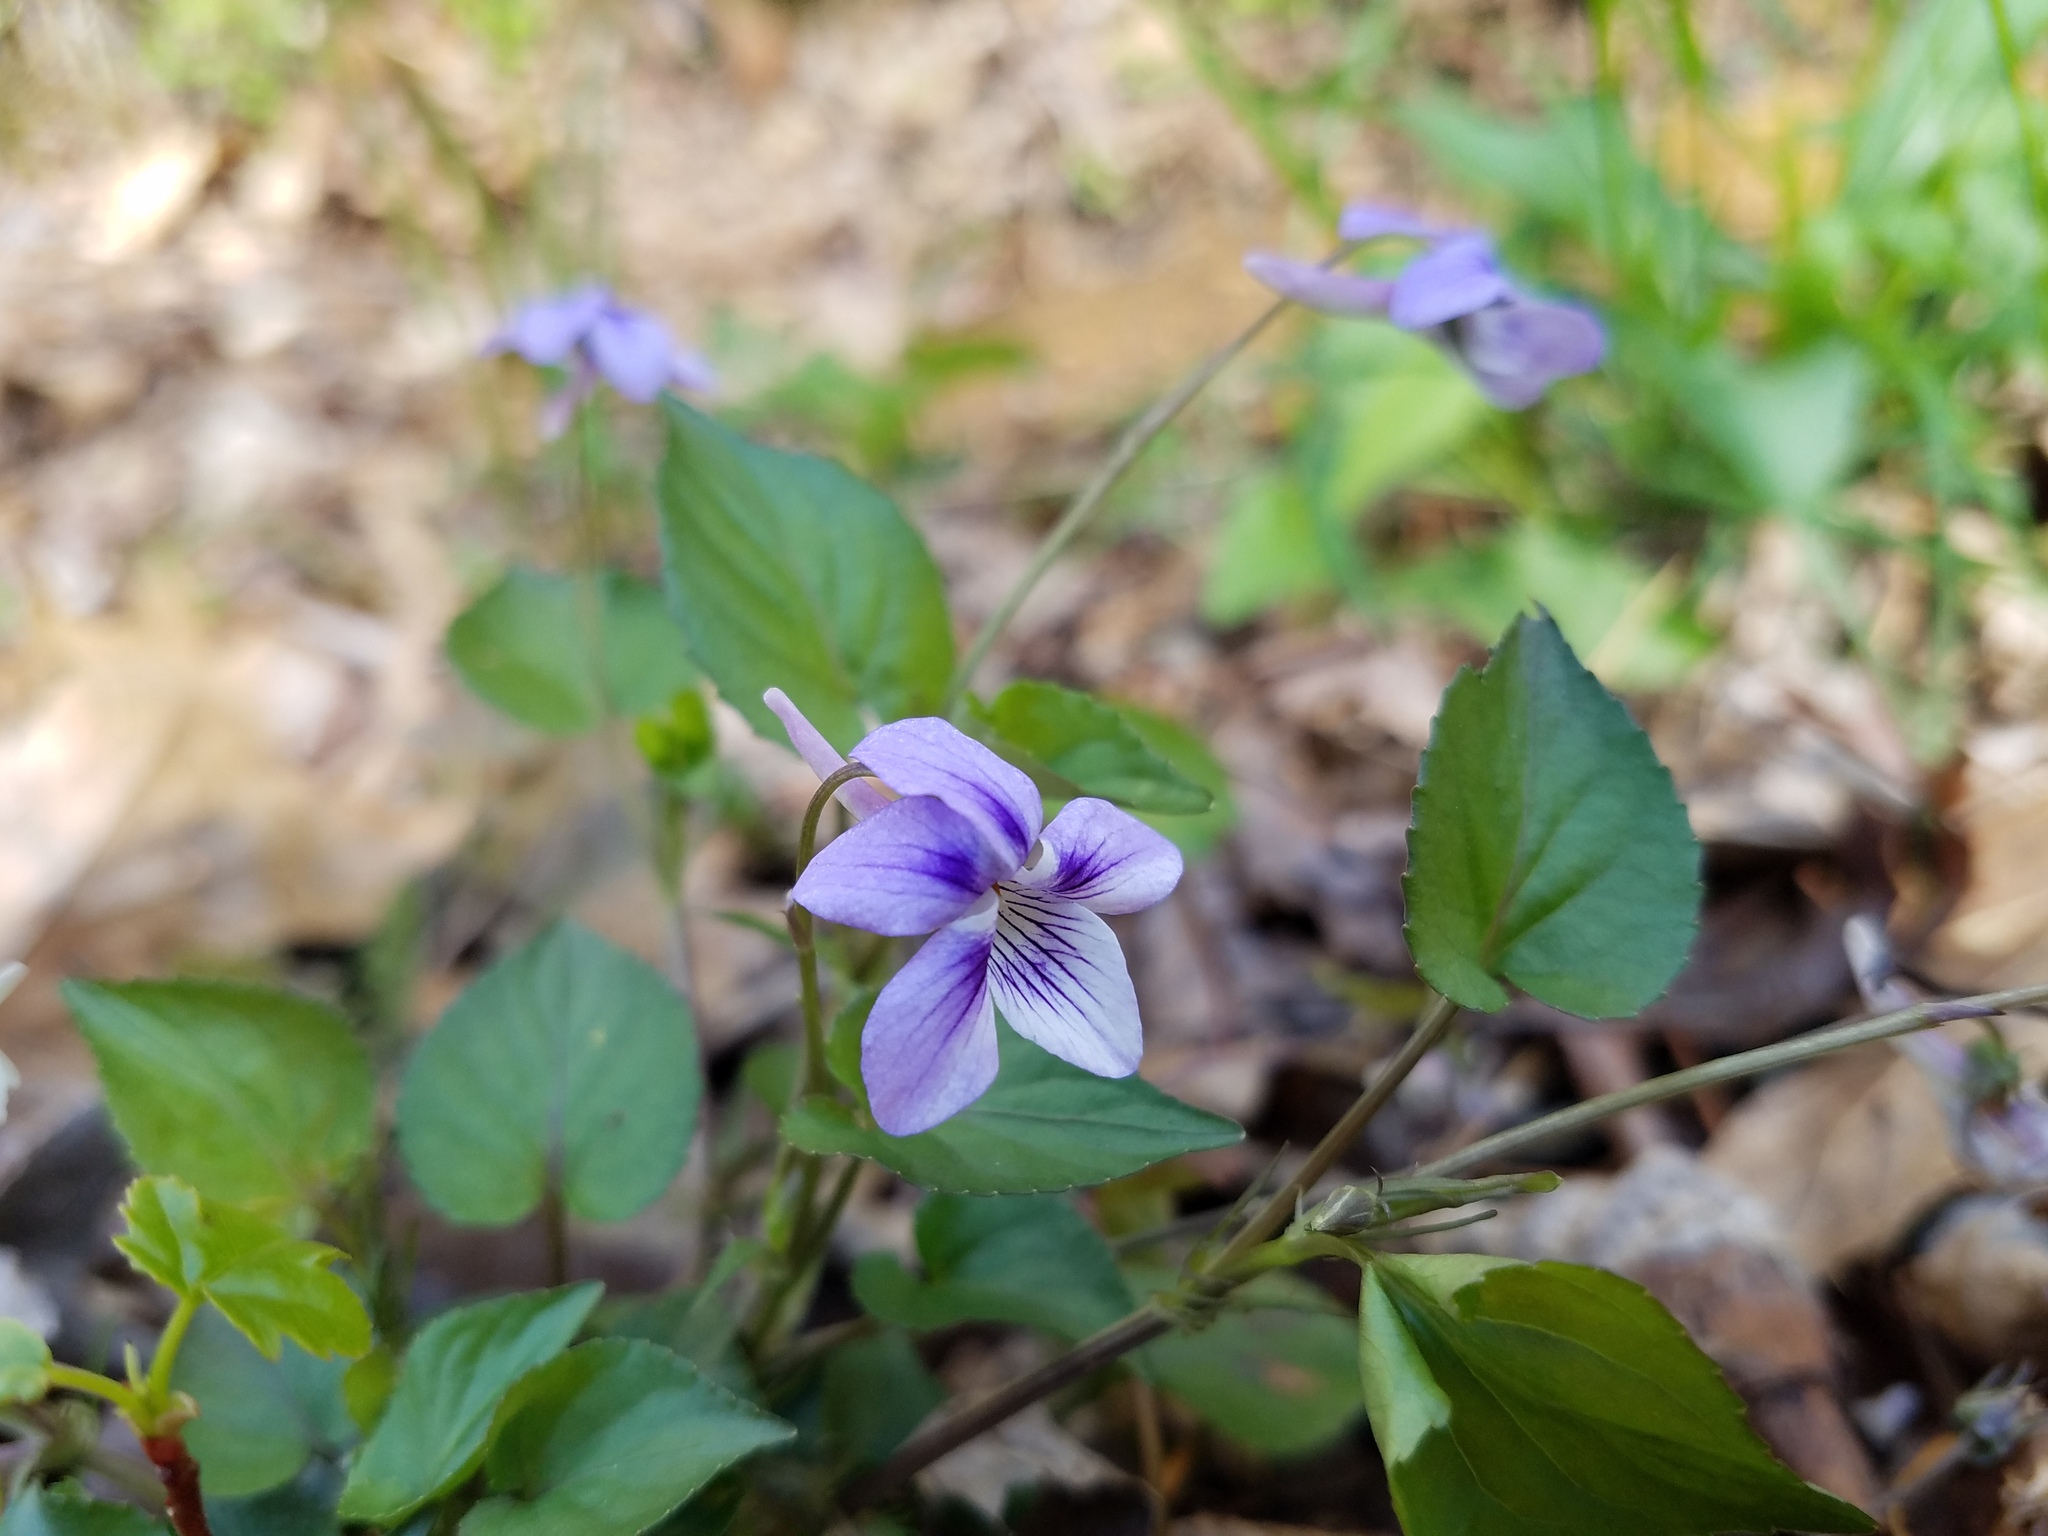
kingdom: Plantae
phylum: Tracheophyta
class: Magnoliopsida
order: Malpighiales
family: Violaceae
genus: Viola
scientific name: Viola rostrata
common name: Long-spur violet
